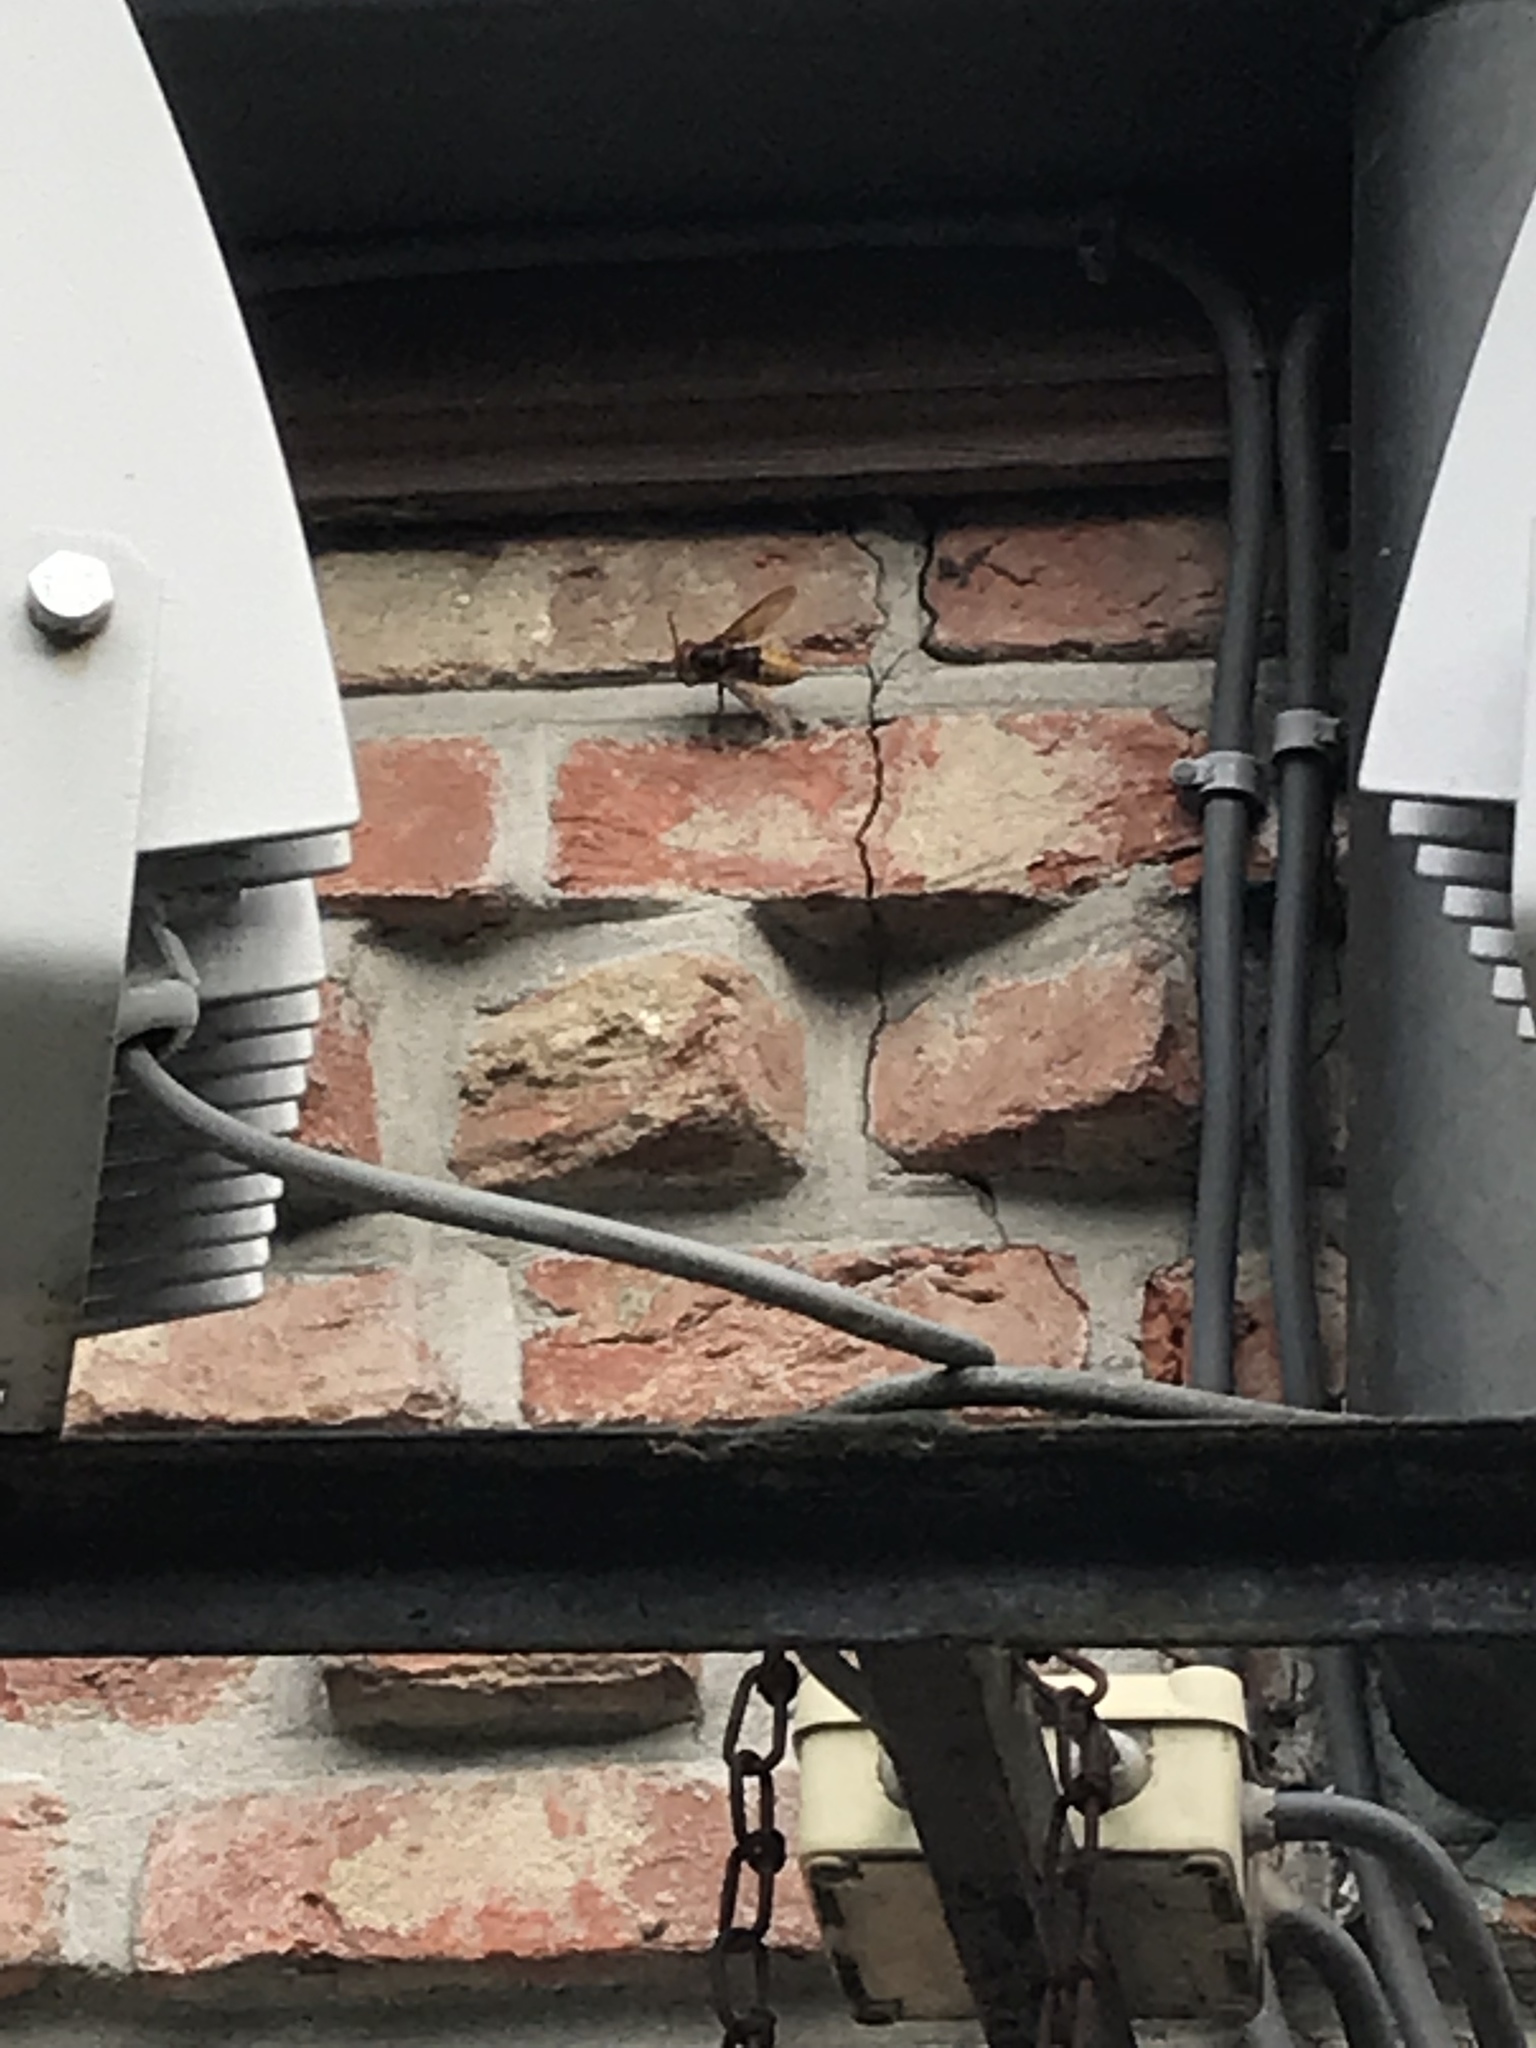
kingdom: Animalia
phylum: Arthropoda
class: Insecta
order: Hymenoptera
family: Vespidae
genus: Vespa
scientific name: Vespa crabro
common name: Hornet
